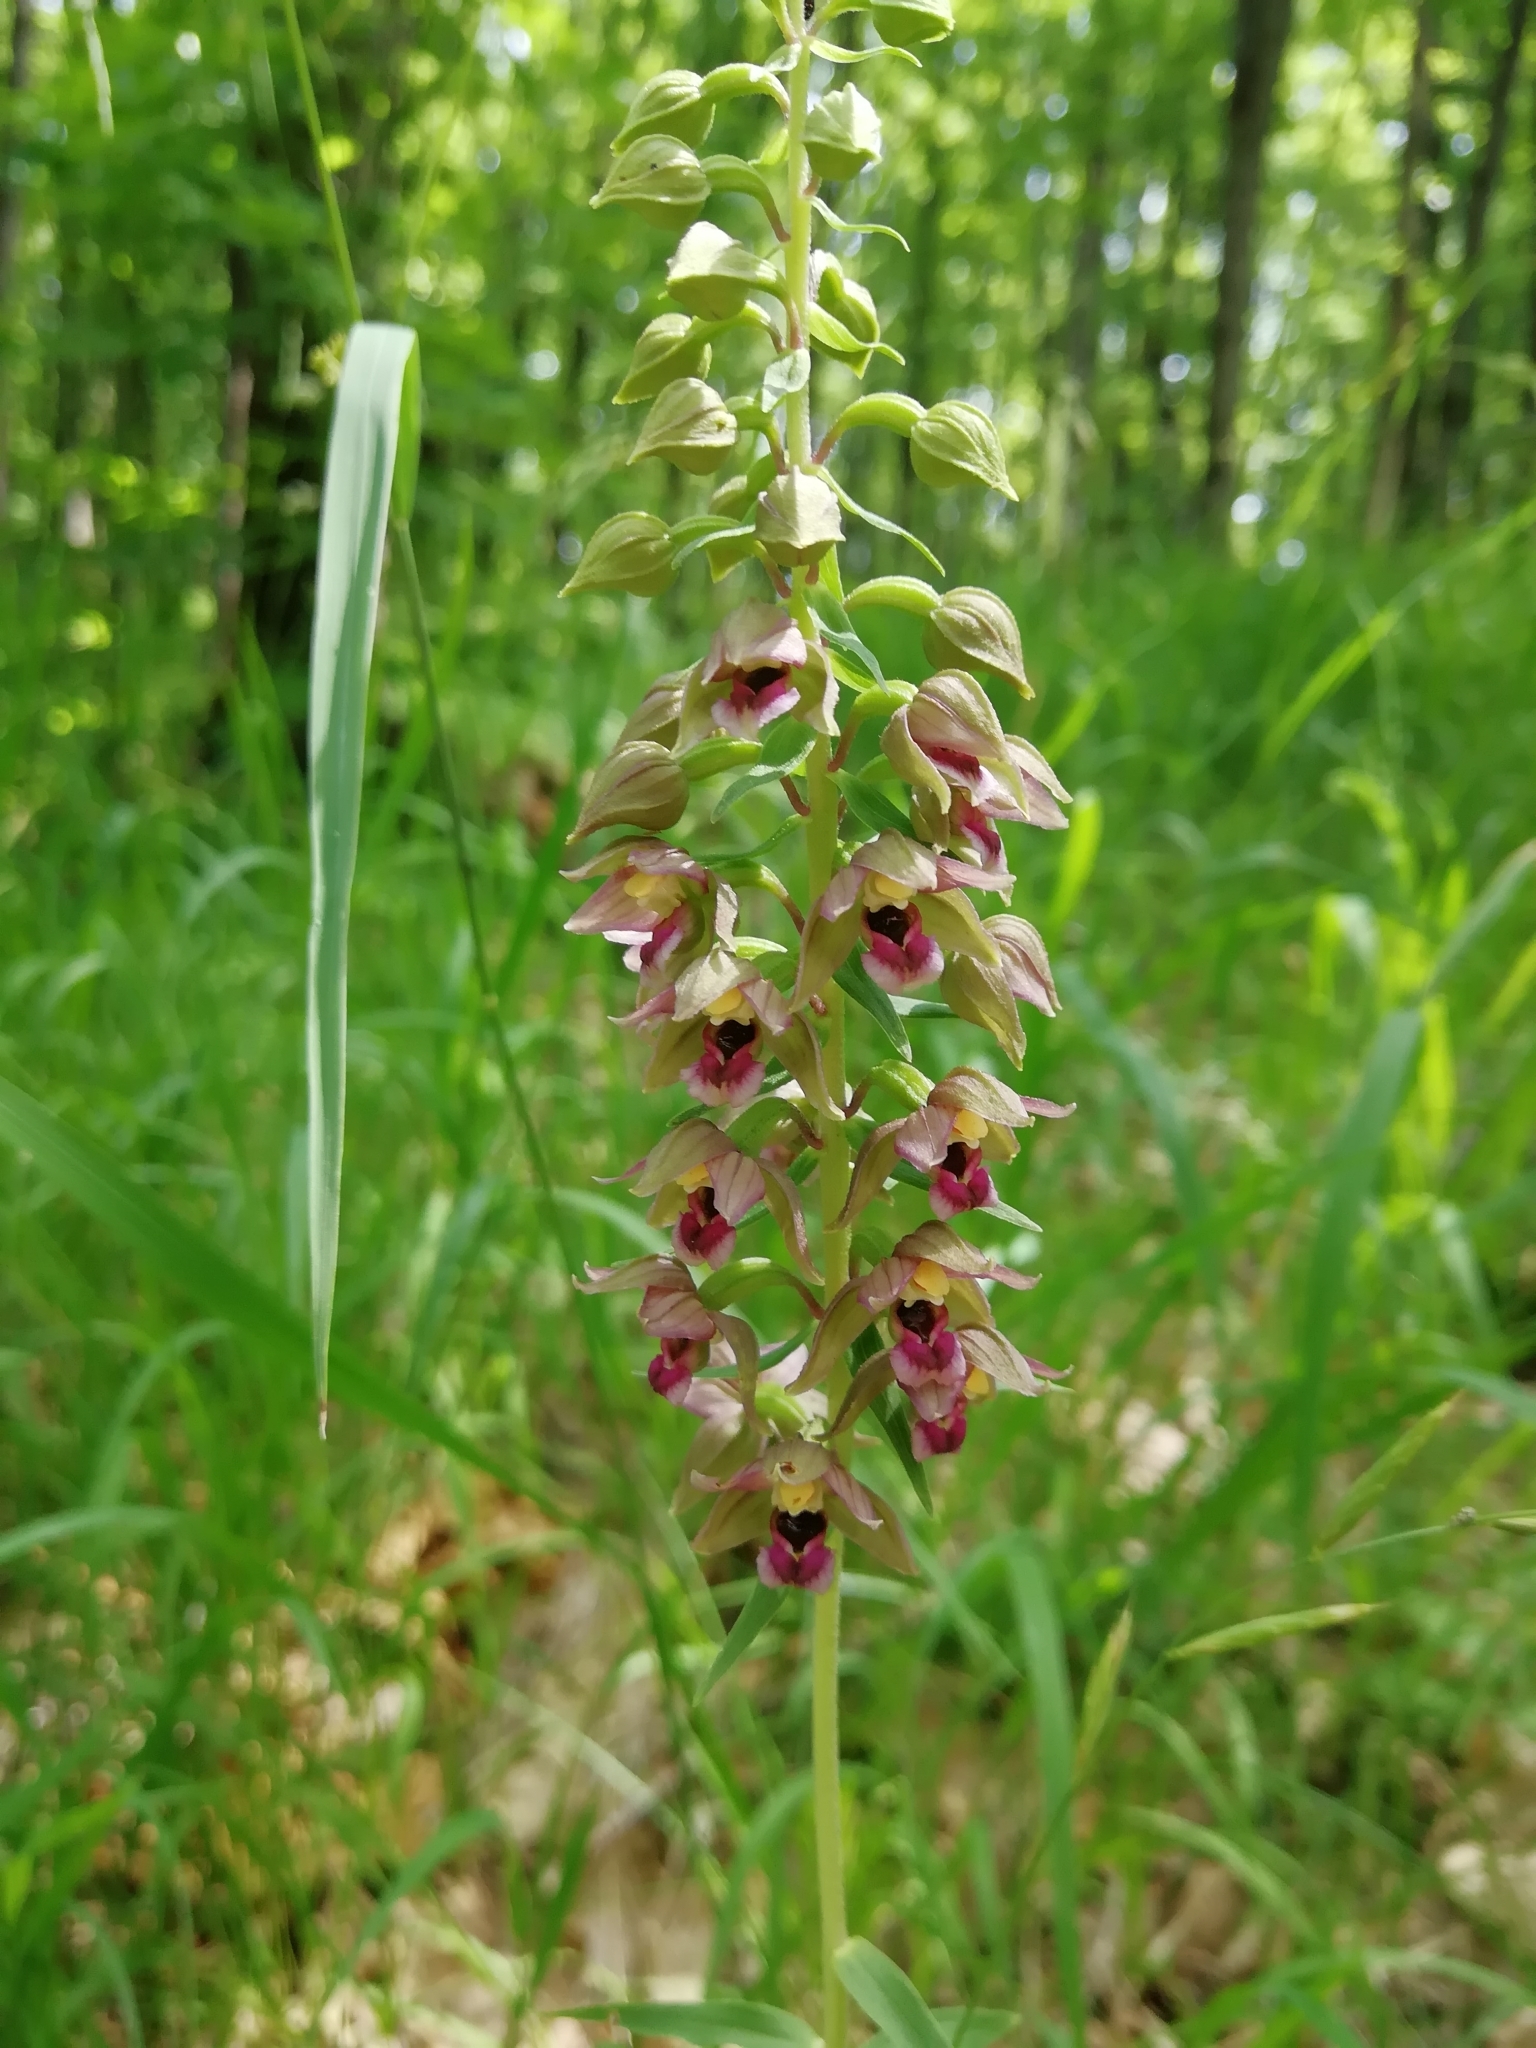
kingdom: Plantae
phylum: Tracheophyta
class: Liliopsida
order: Asparagales
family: Orchidaceae
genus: Epipactis
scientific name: Epipactis helleborine
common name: Broad-leaved helleborine
